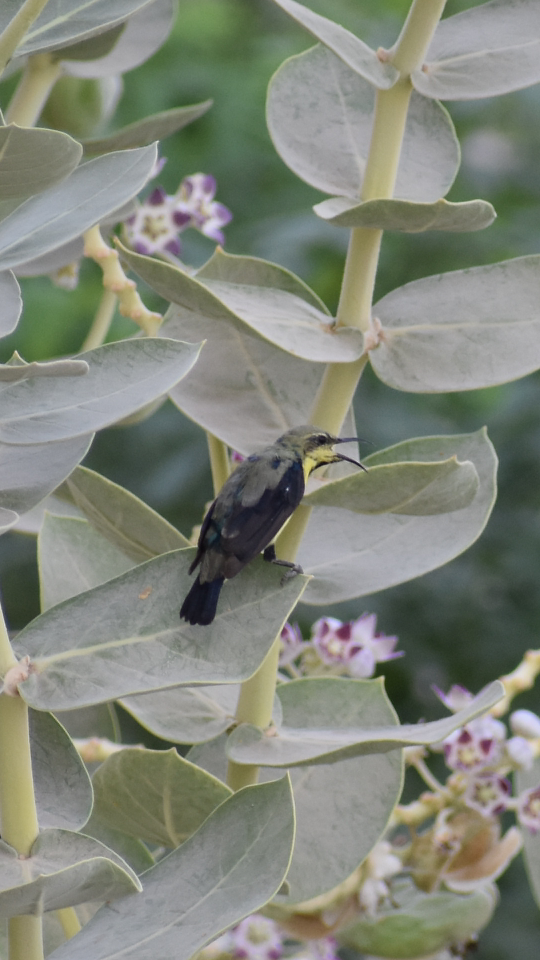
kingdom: Animalia
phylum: Chordata
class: Aves
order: Passeriformes
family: Nectariniidae
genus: Cinnyris
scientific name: Cinnyris asiaticus
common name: Purple sunbird
